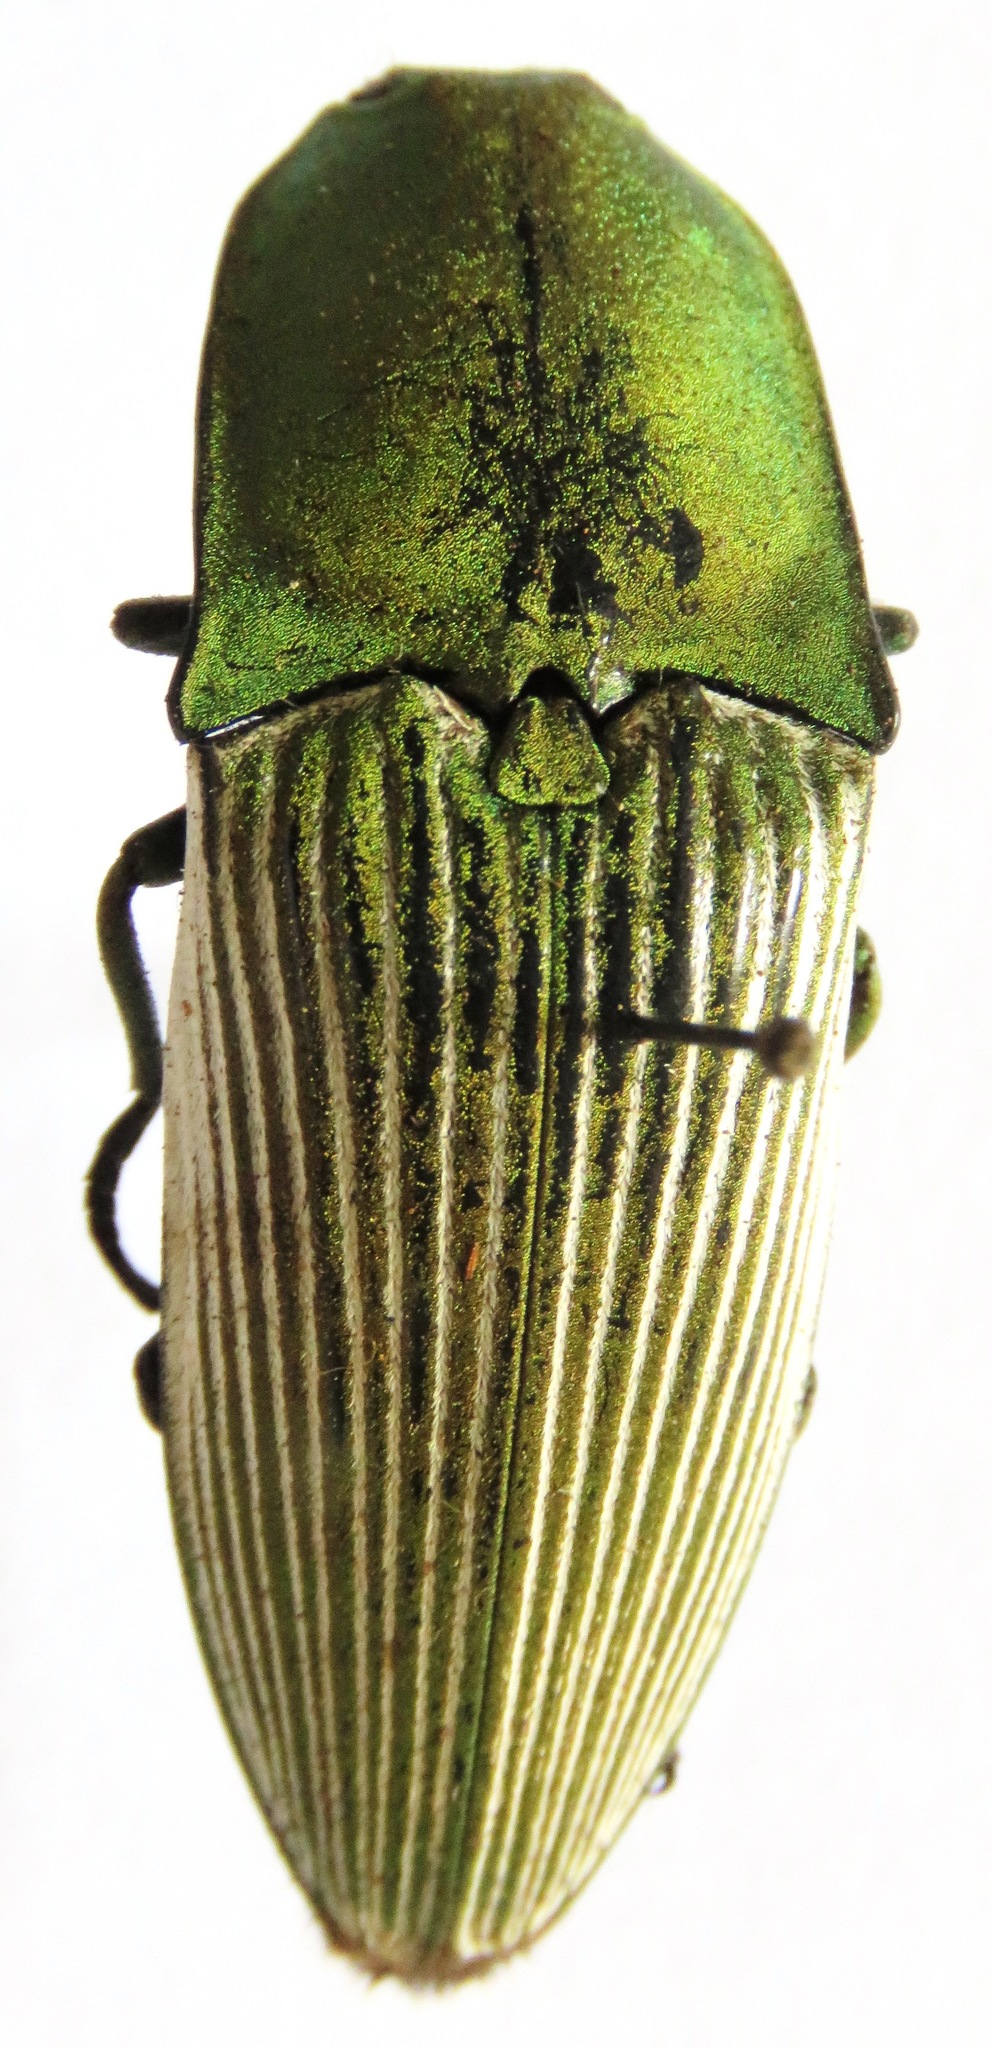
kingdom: Animalia
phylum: Arthropoda
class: Insecta
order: Coleoptera
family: Elateridae
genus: Chalcolepidius
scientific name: Chalcolepidius
